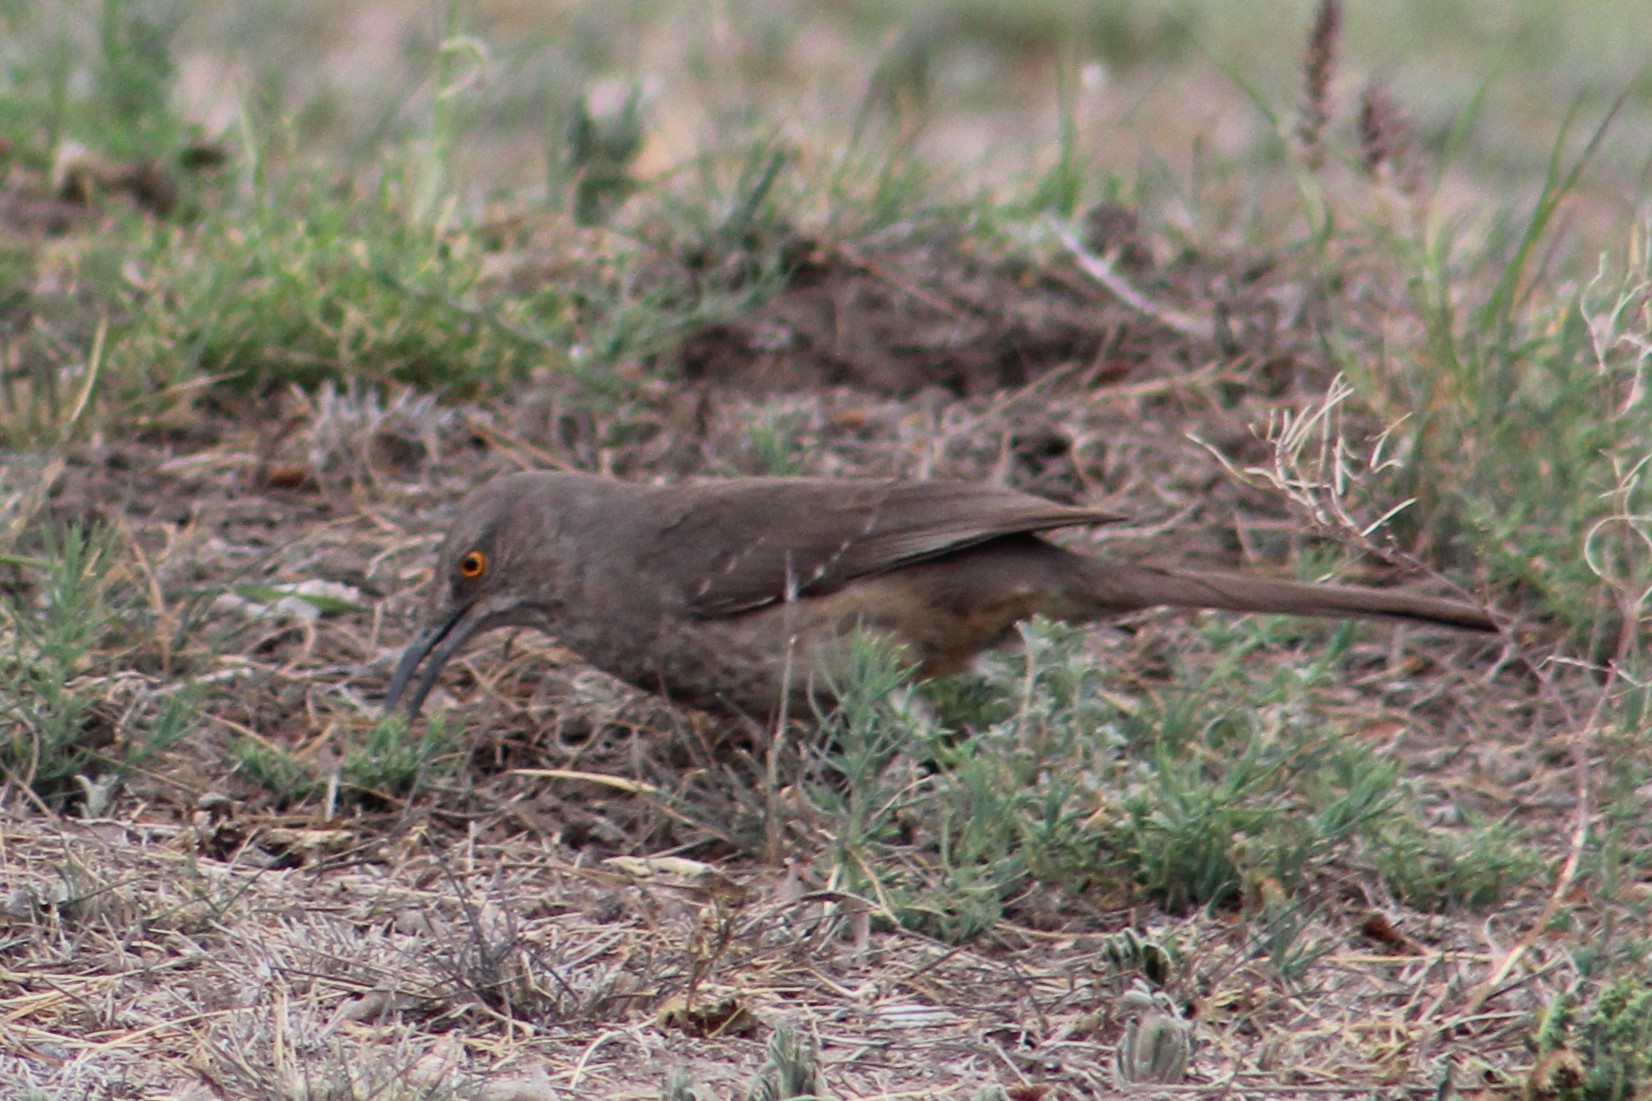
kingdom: Animalia
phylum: Chordata
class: Aves
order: Passeriformes
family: Mimidae
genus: Toxostoma
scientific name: Toxostoma curvirostre
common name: Curve-billed thrasher
